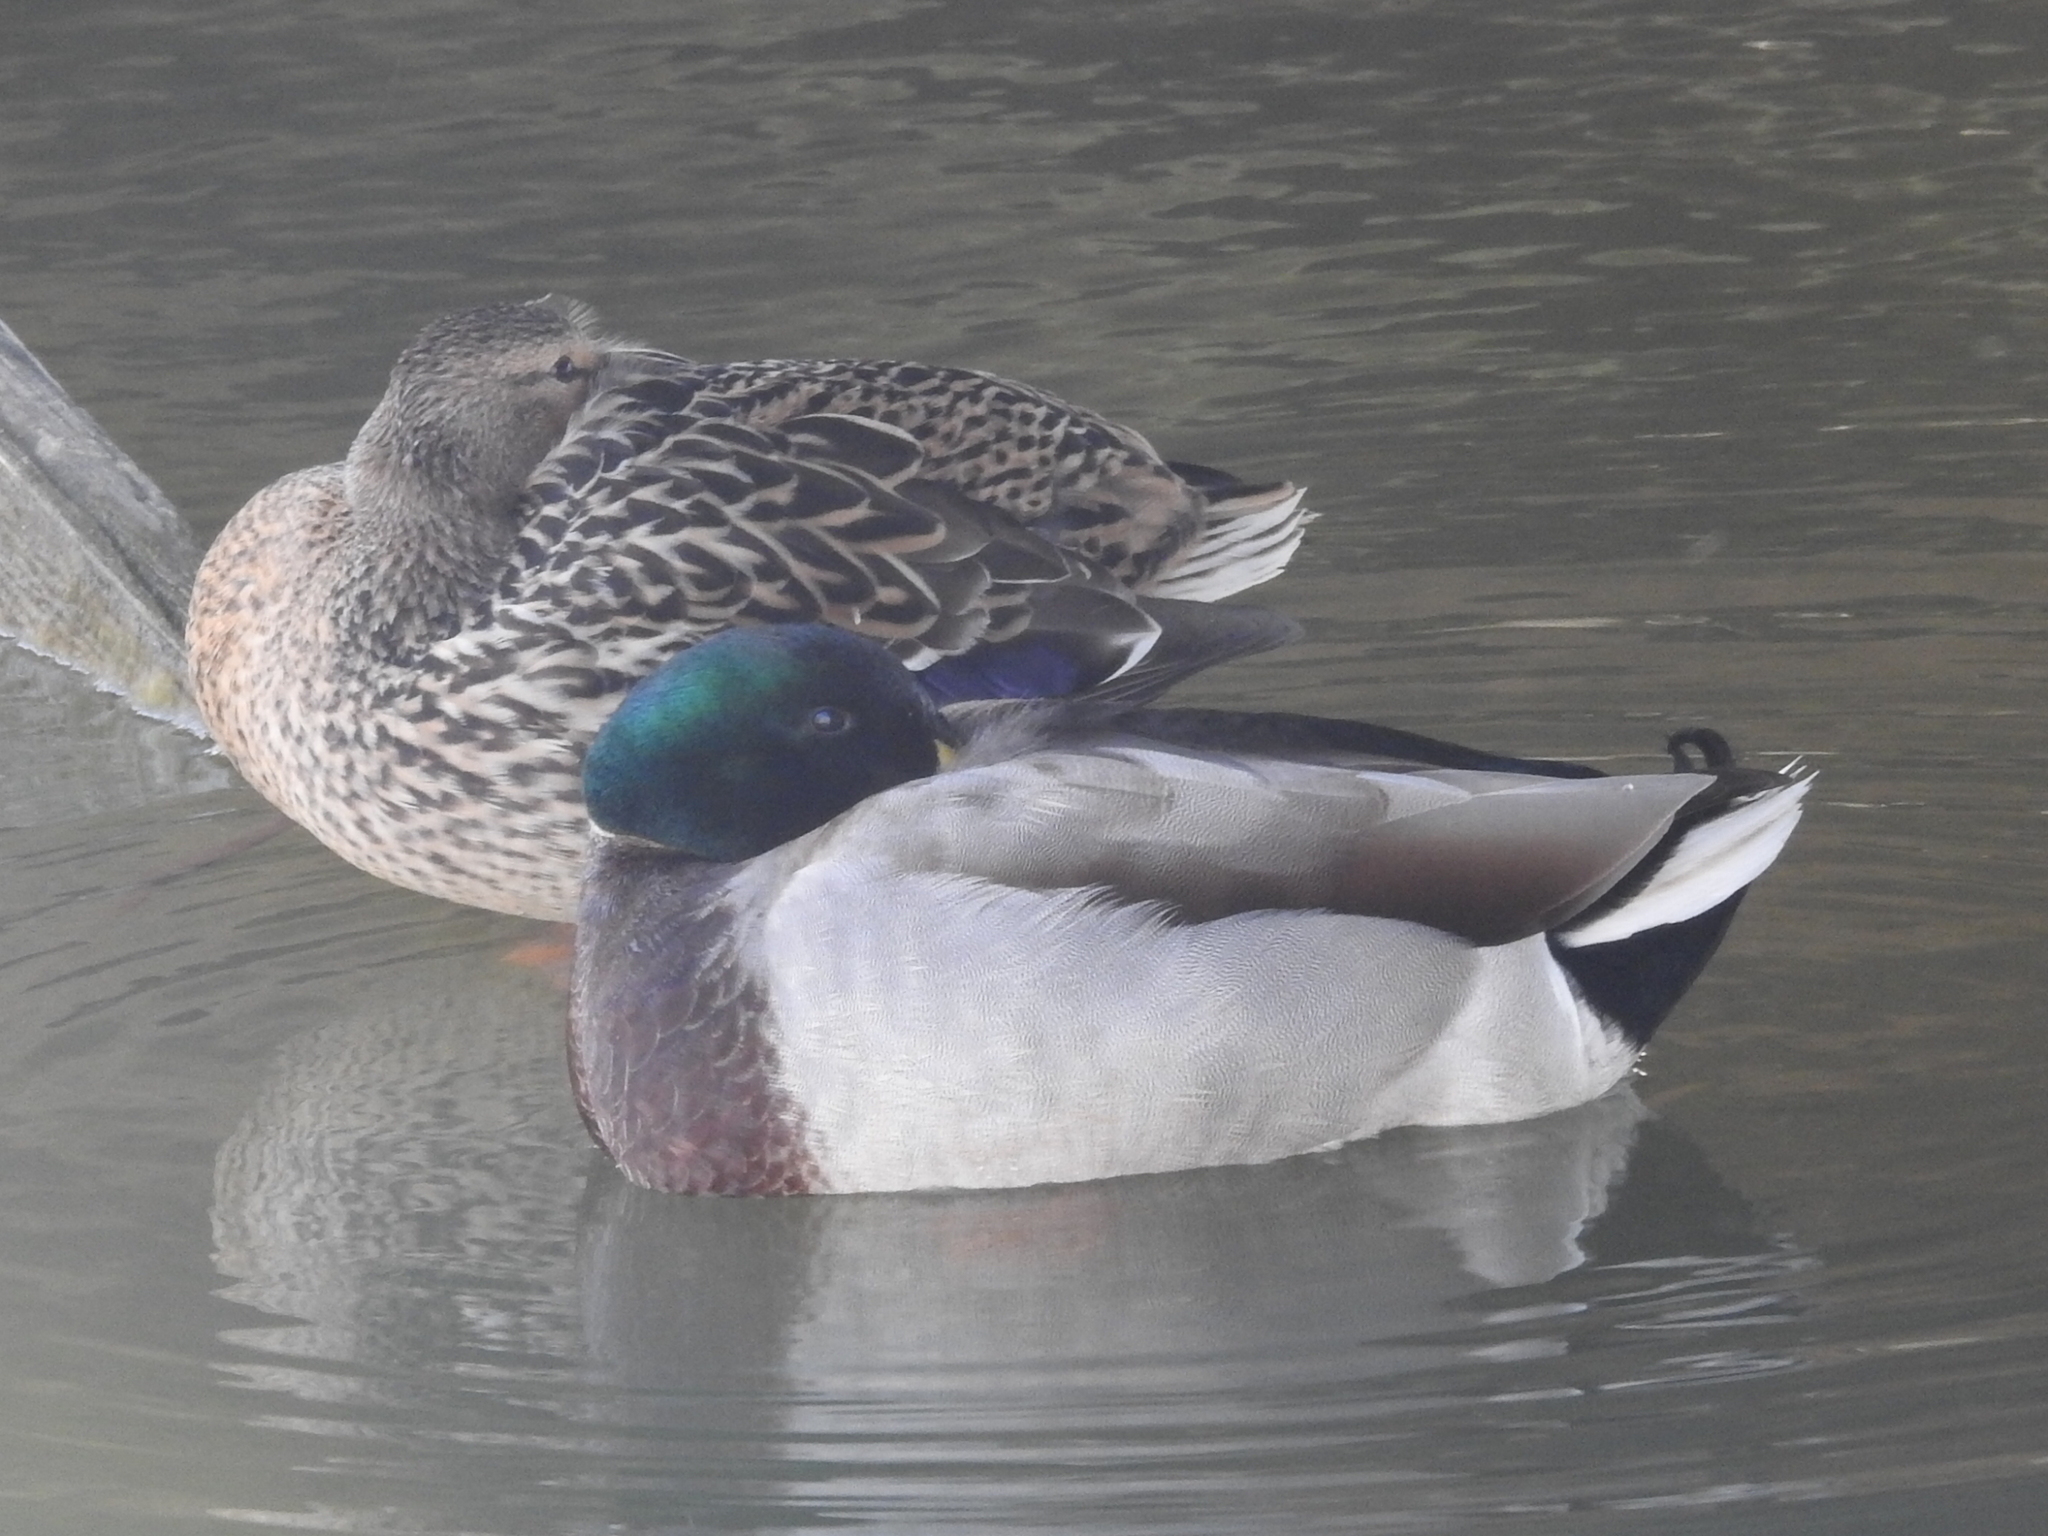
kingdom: Animalia
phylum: Chordata
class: Aves
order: Anseriformes
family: Anatidae
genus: Anas
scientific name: Anas platyrhynchos
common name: Mallard
